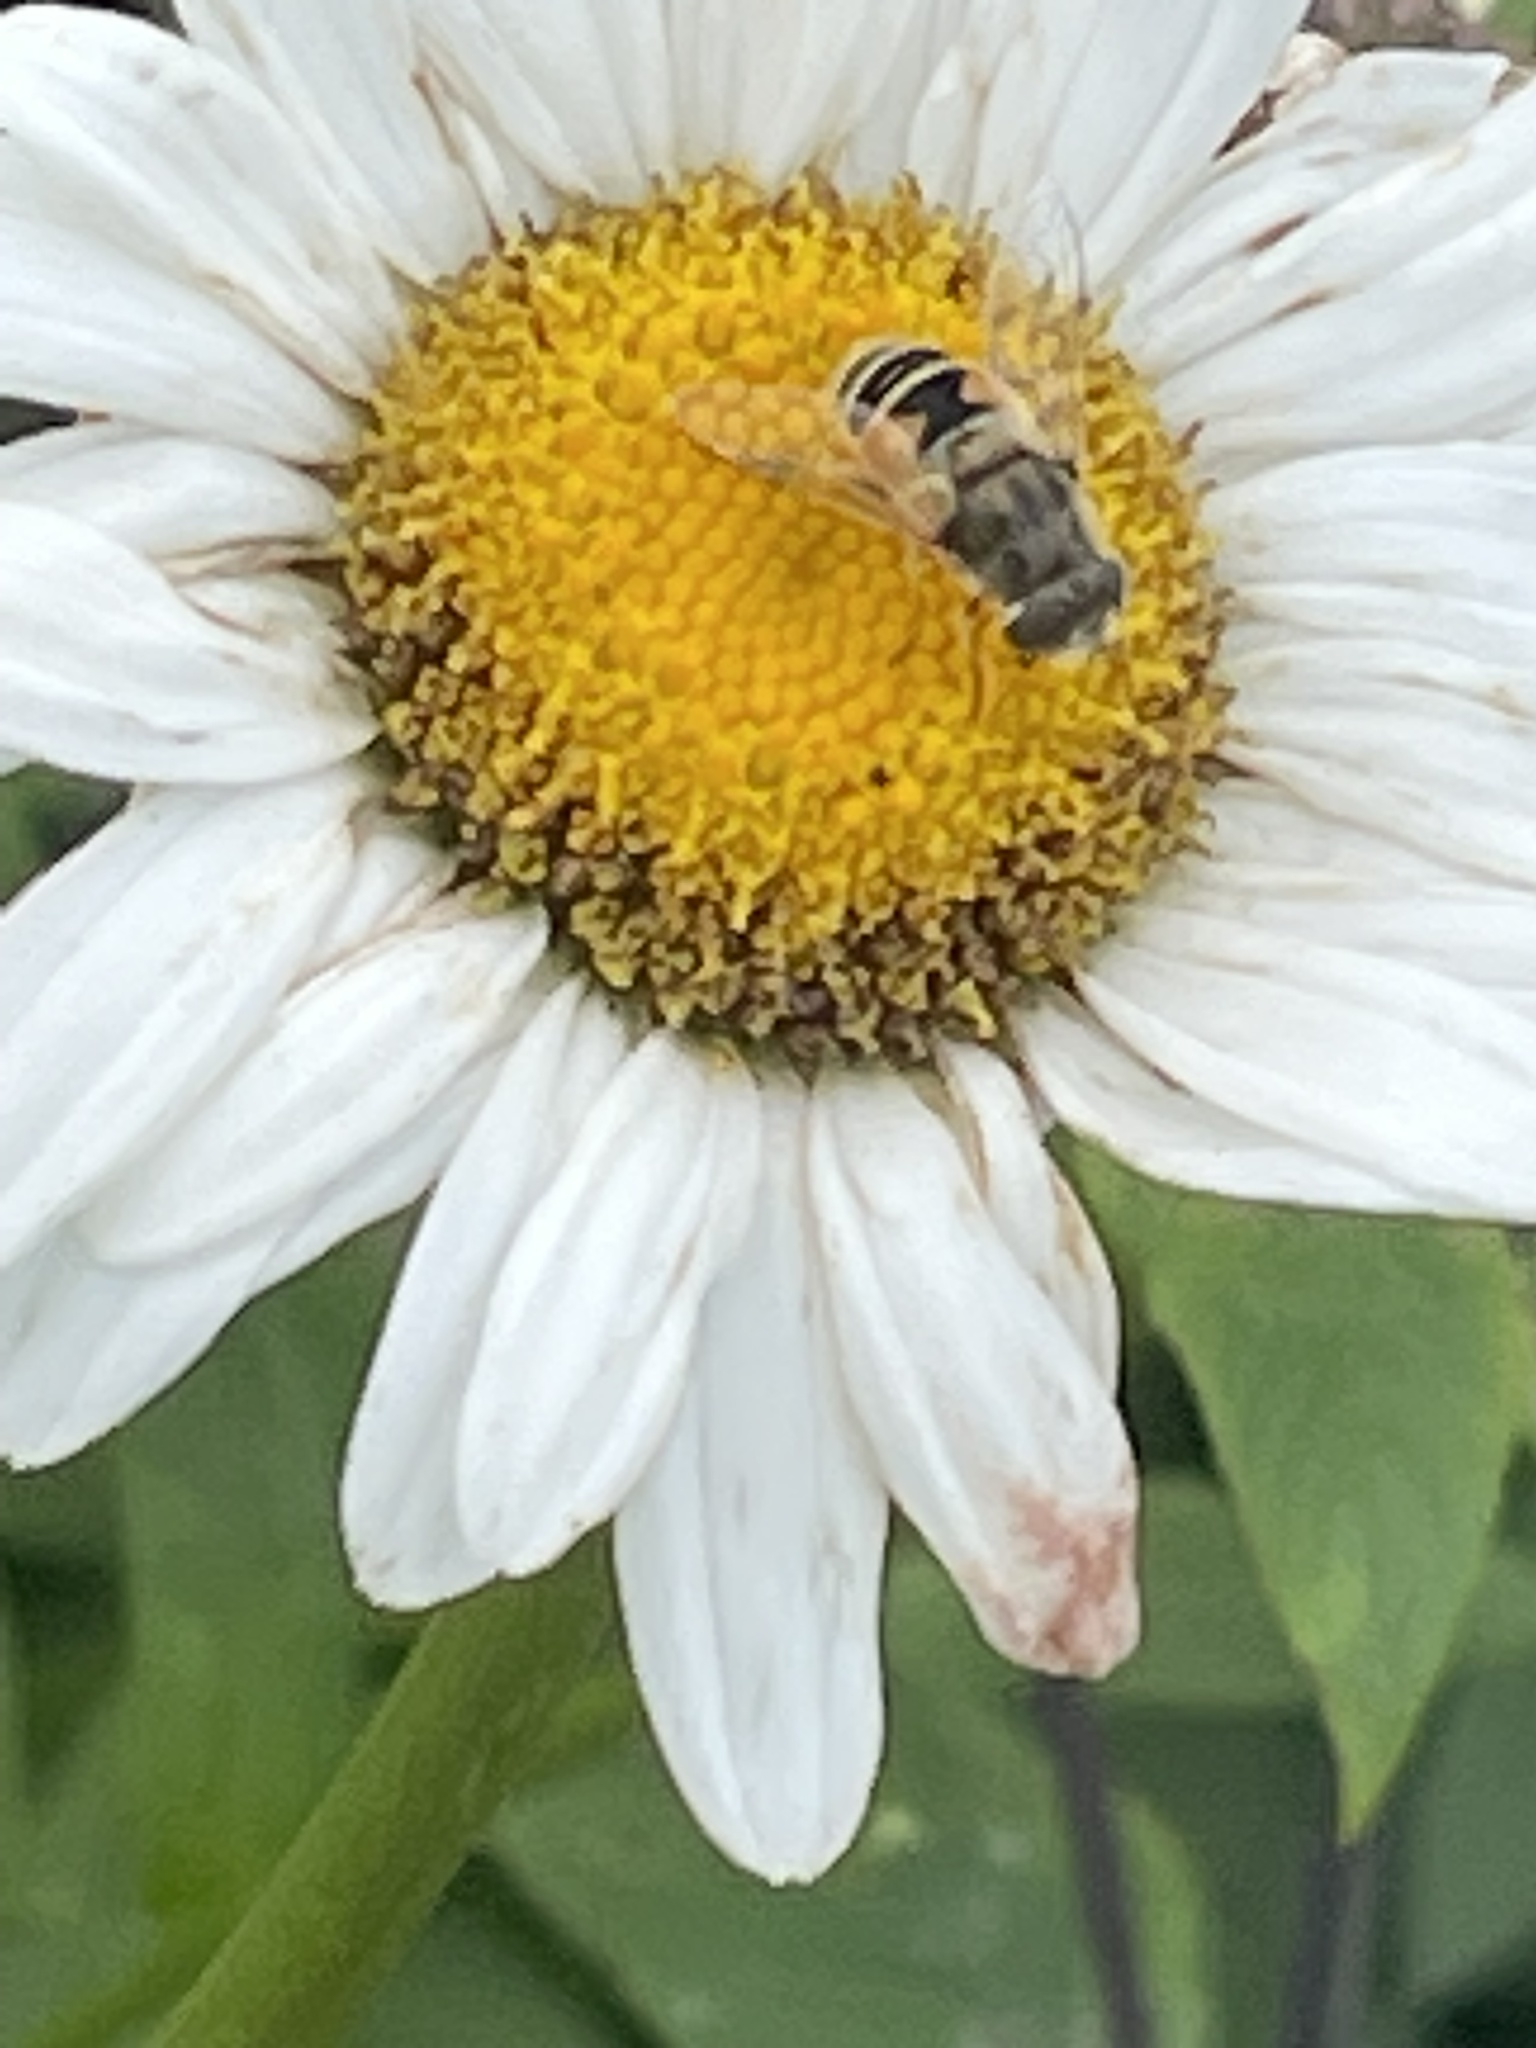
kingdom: Animalia
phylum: Arthropoda
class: Insecta
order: Diptera
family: Syrphidae
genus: Eristalis
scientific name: Eristalis arbustorum
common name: Hover fly
